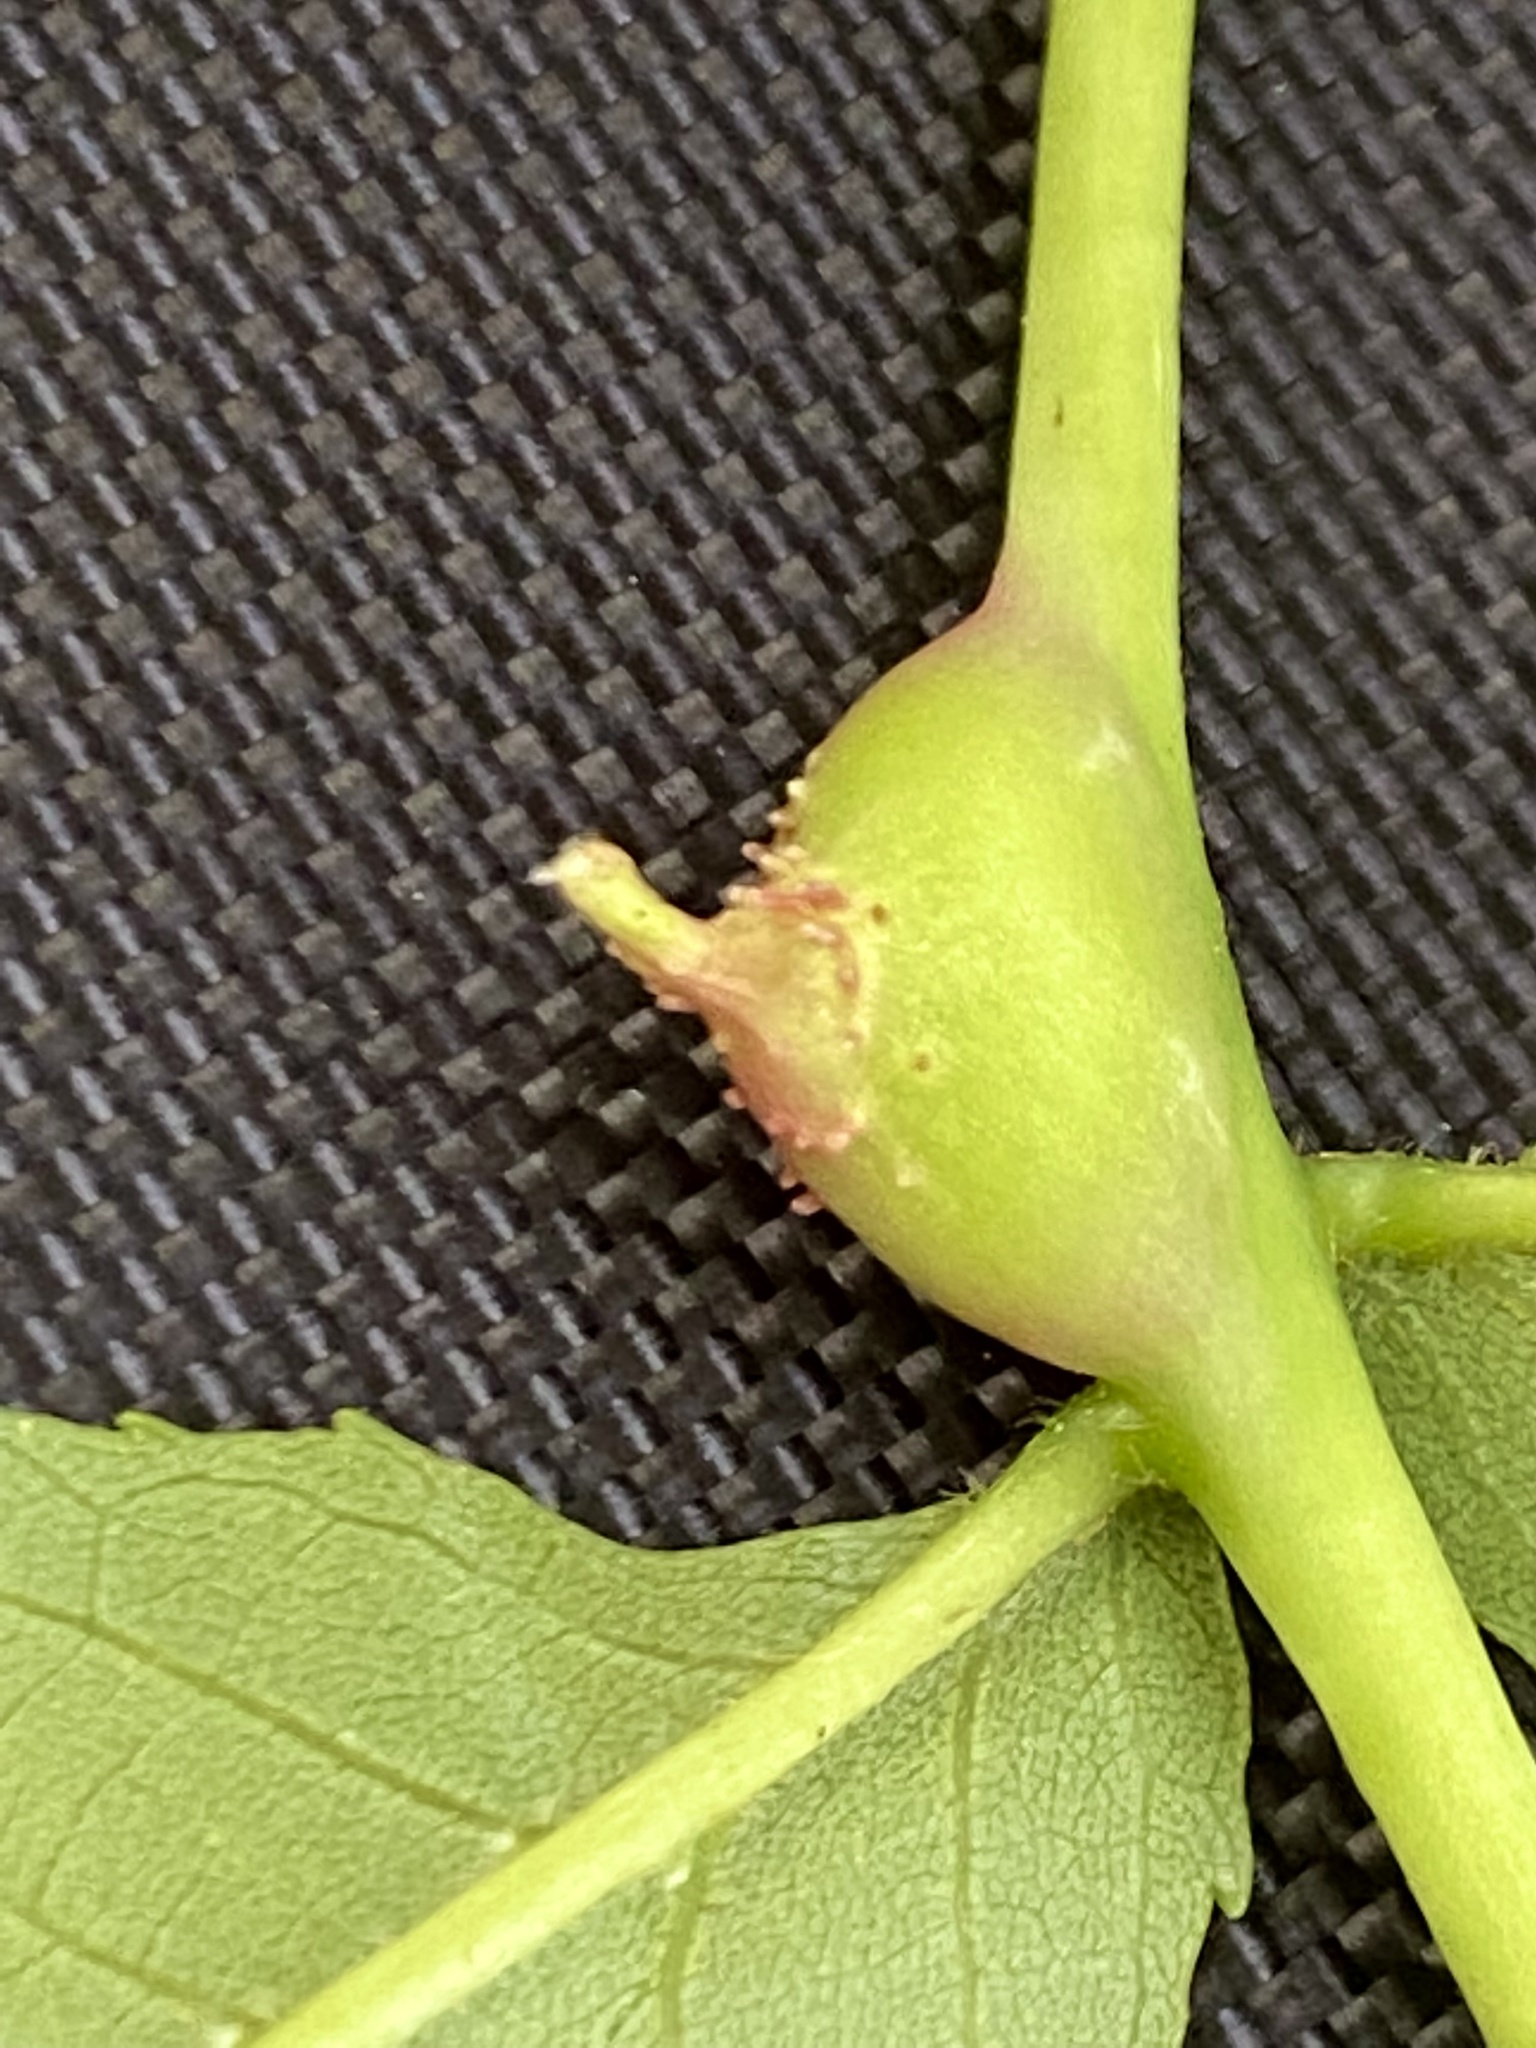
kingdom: Animalia
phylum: Arthropoda
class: Insecta
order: Hemiptera
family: Phylloxeridae
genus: Phylloxera
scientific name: Phylloxera spinosa
